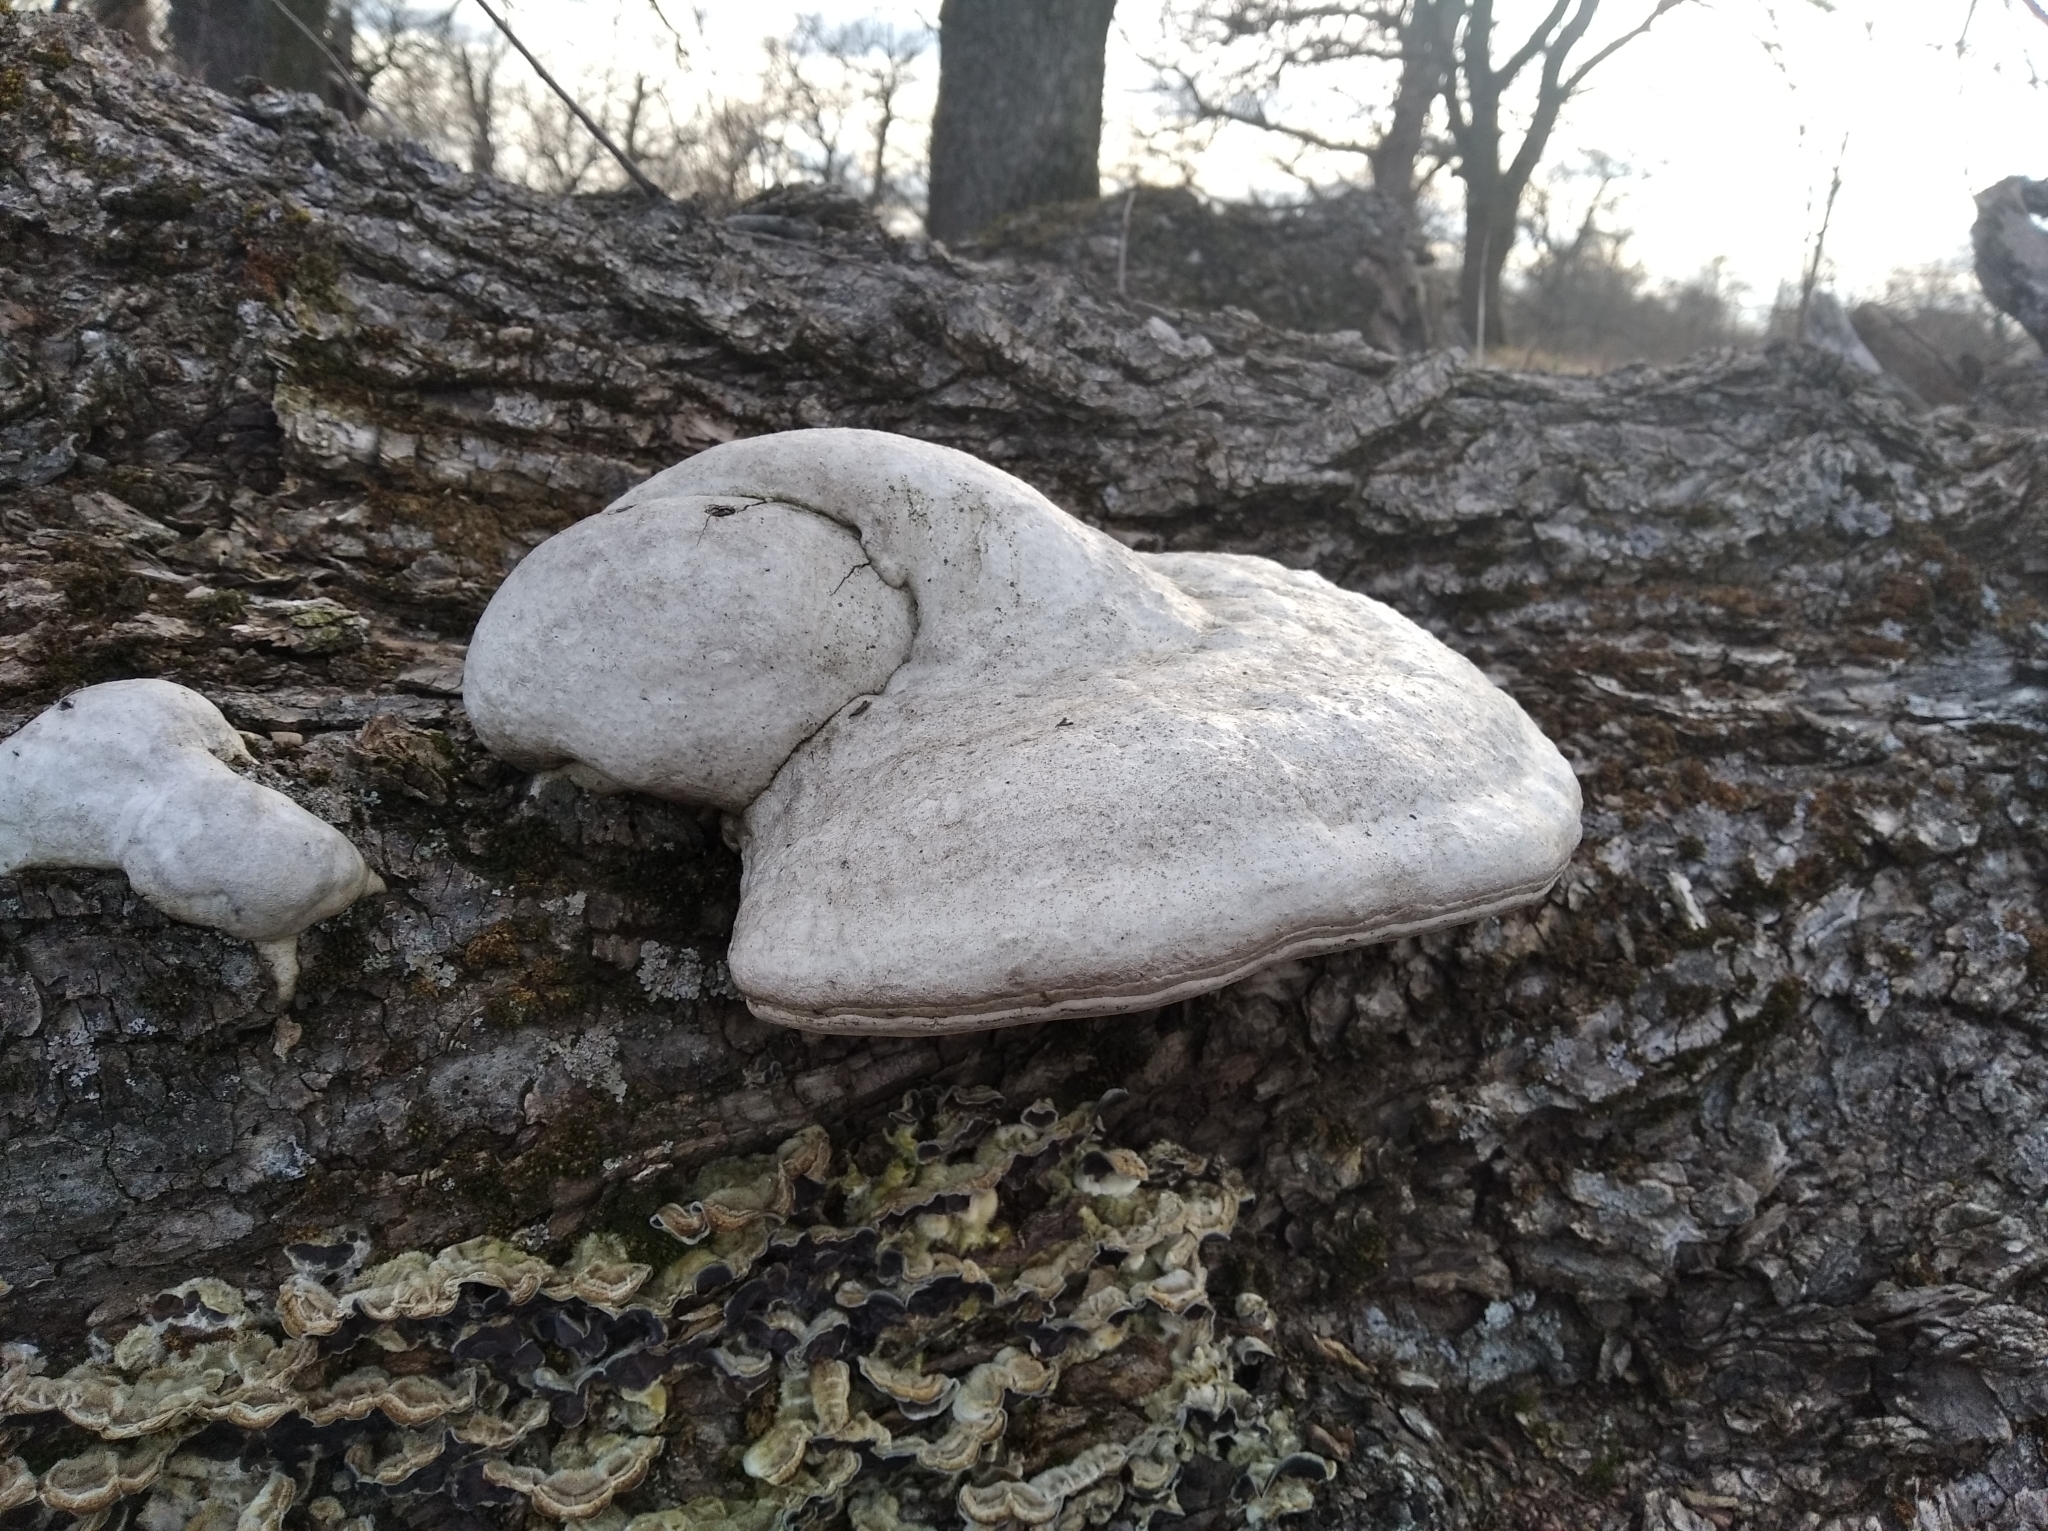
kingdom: Fungi
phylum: Basidiomycota
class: Agaricomycetes
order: Polyporales
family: Polyporaceae
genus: Fomes
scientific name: Fomes fomentarius
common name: Hoof fungus
